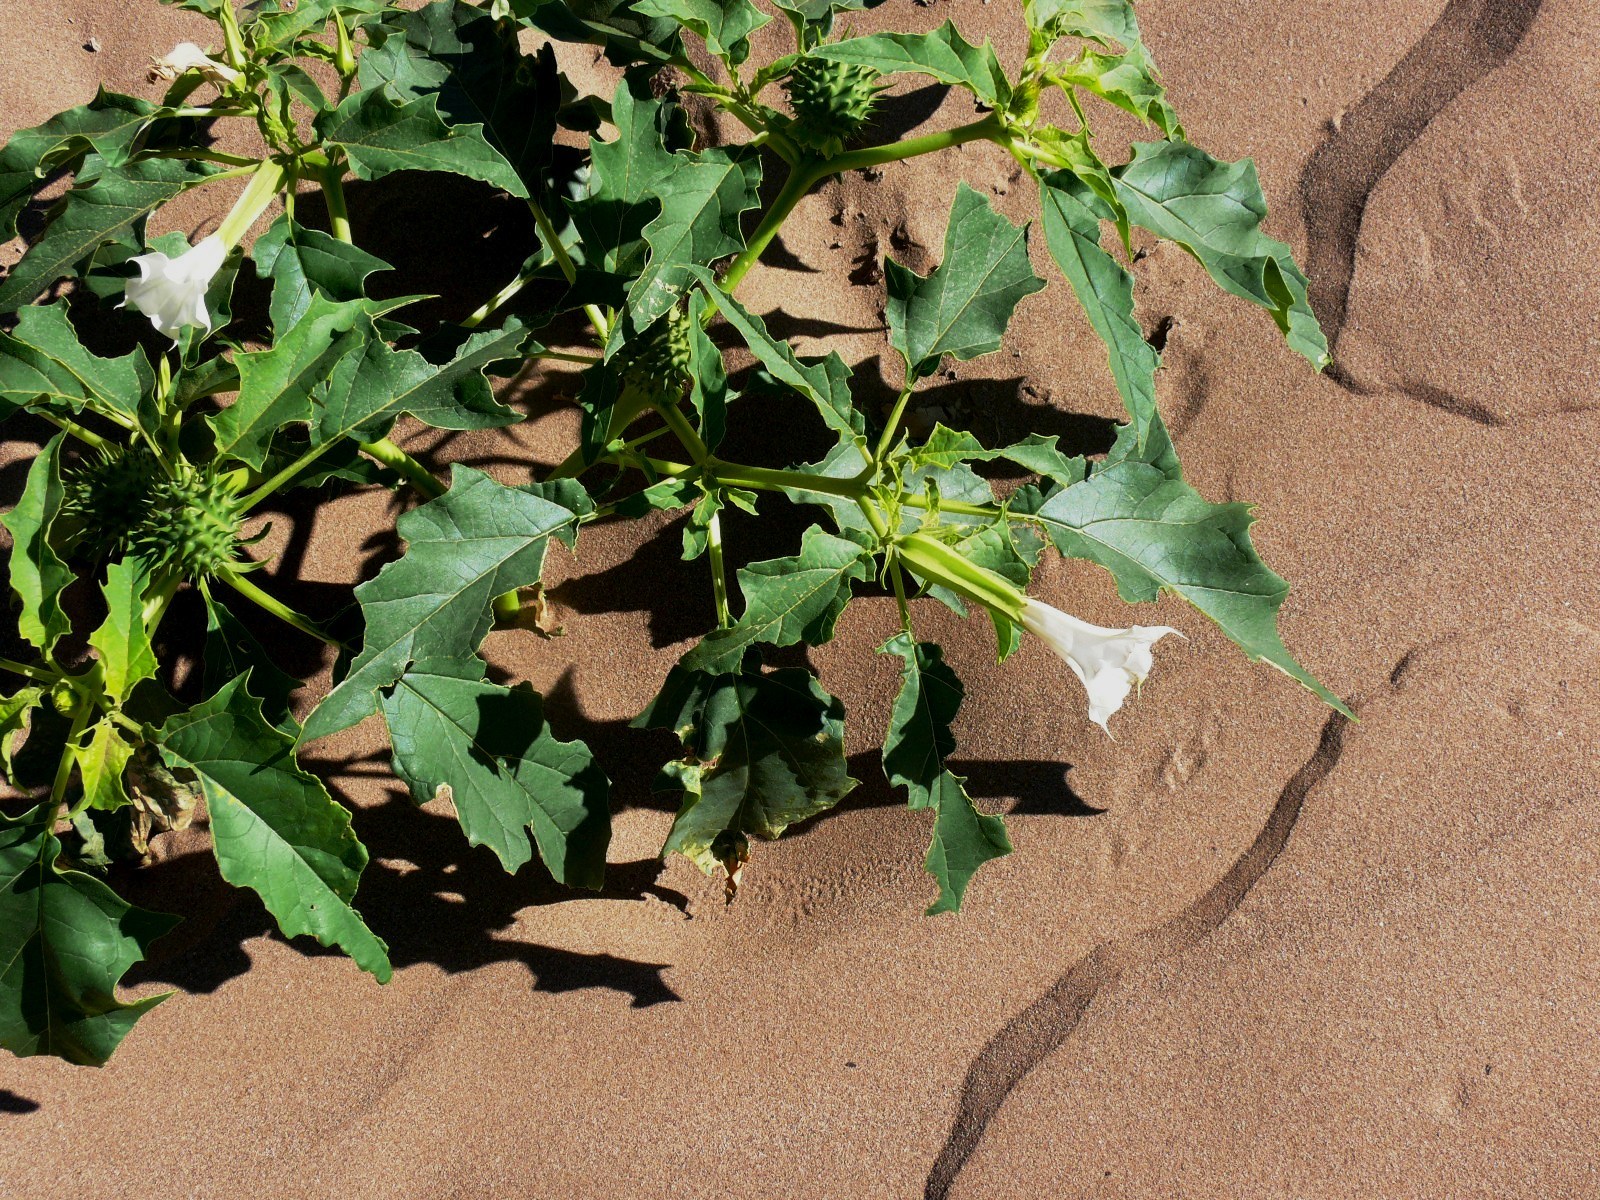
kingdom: Plantae
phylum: Tracheophyta
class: Magnoliopsida
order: Solanales
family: Solanaceae
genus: Datura
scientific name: Datura stramonium
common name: Thorn-apple
